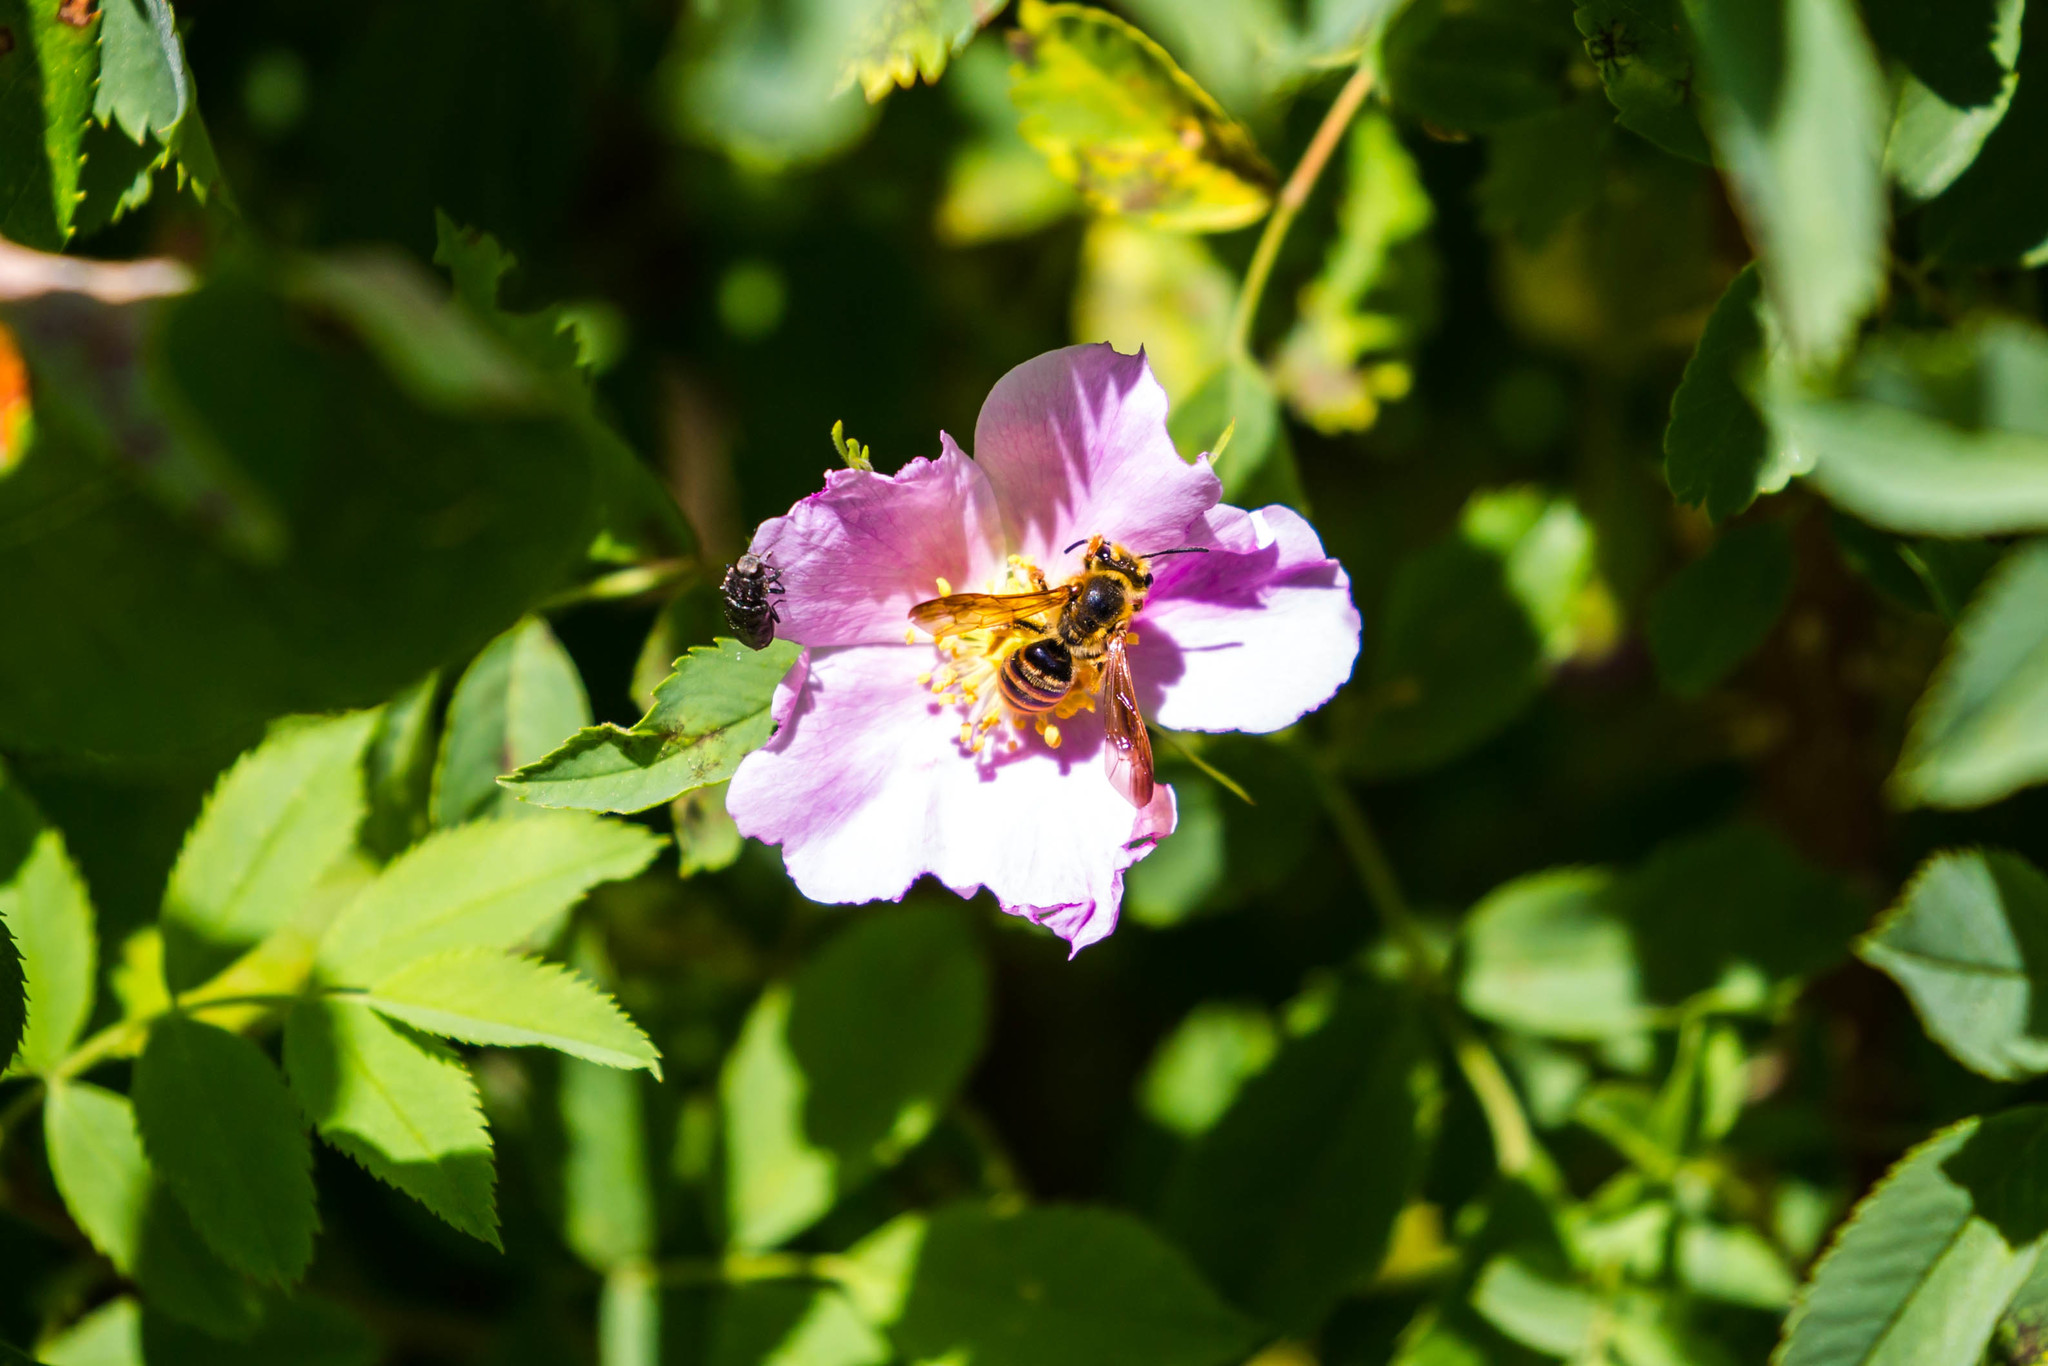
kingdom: Animalia
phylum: Arthropoda
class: Insecta
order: Hymenoptera
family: Andrenidae
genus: Andrena
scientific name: Andrena auricoma
